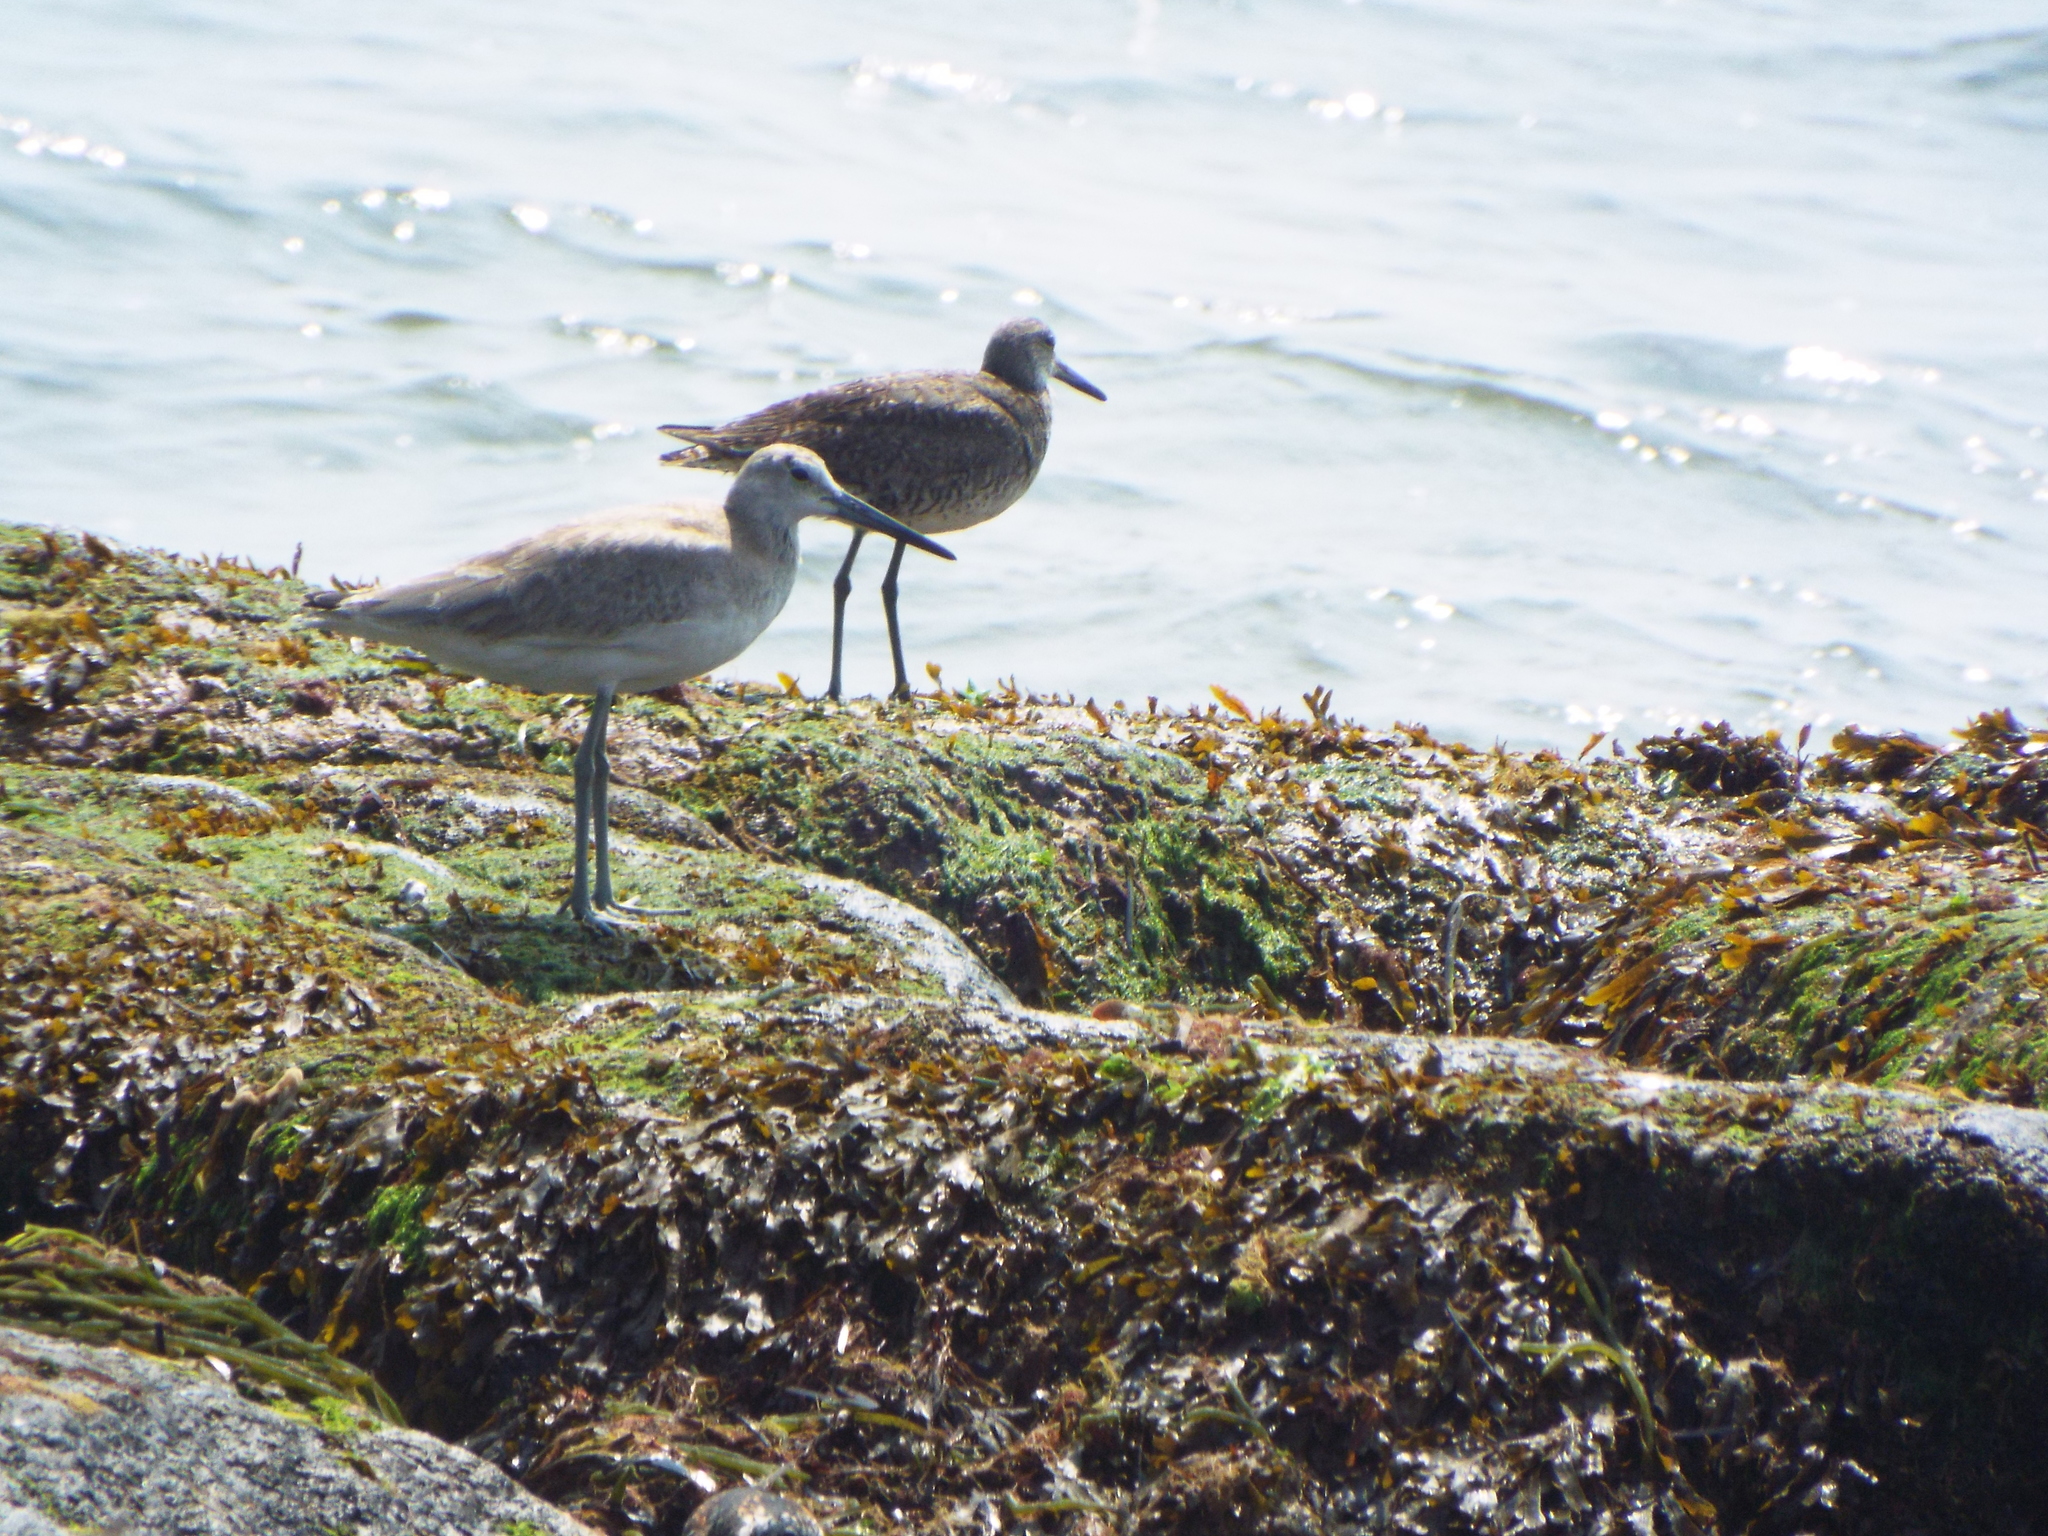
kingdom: Animalia
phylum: Chordata
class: Aves
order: Charadriiformes
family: Scolopacidae
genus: Tringa
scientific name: Tringa semipalmata
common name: Willet
